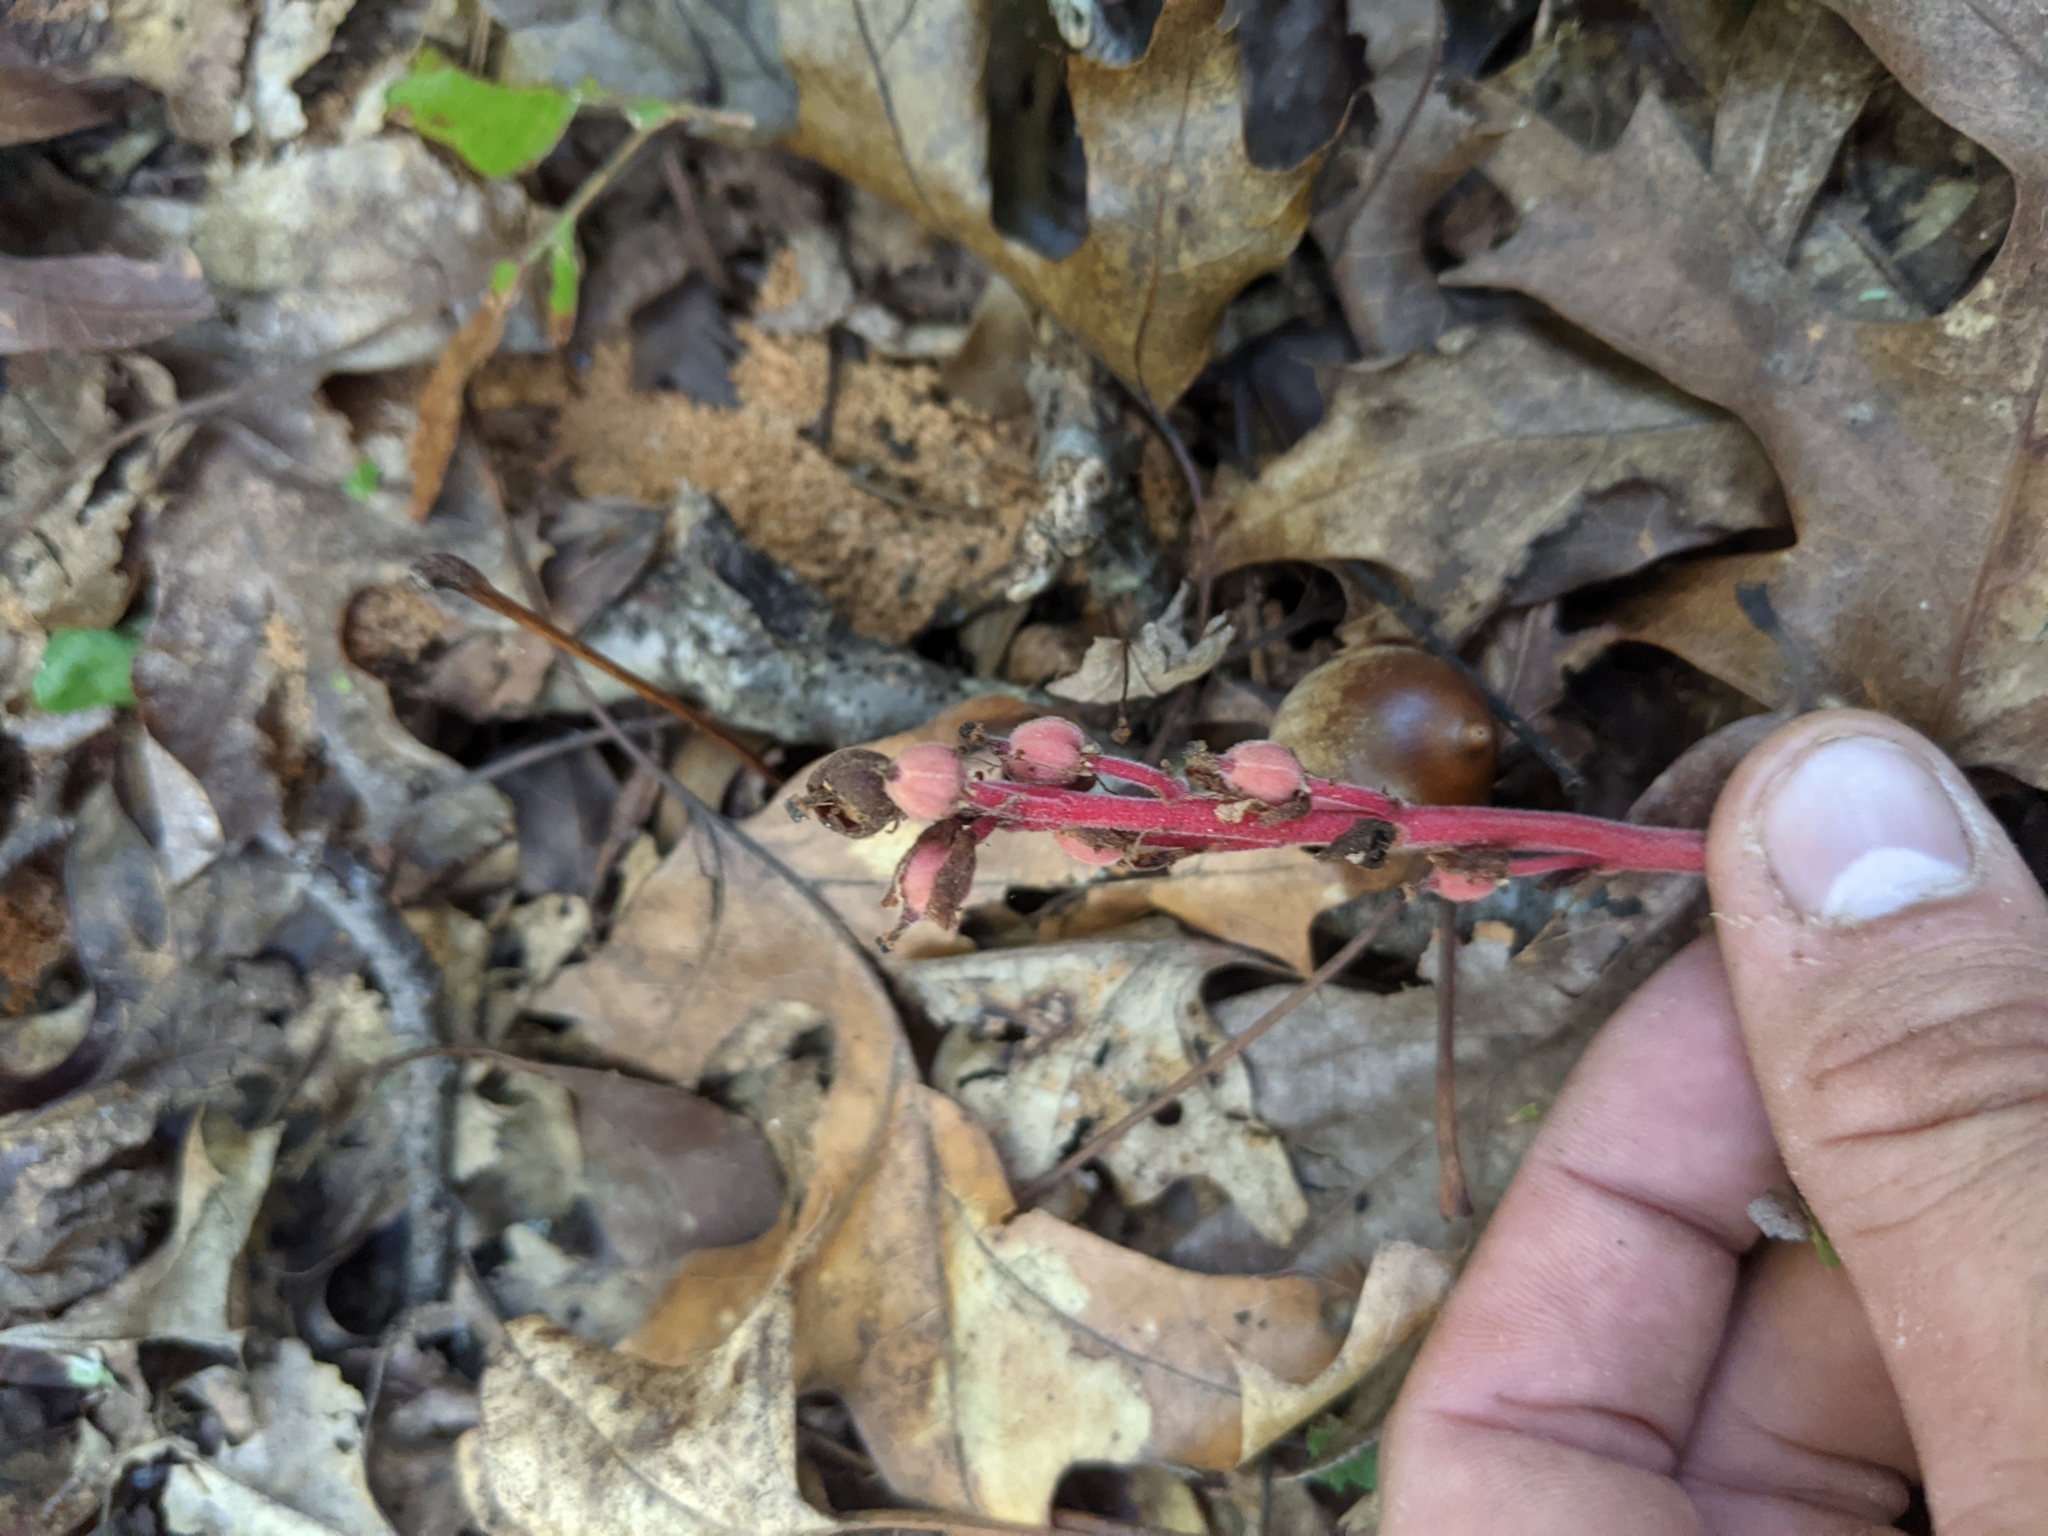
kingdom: Plantae
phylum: Tracheophyta
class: Magnoliopsida
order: Ericales
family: Ericaceae
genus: Hypopitys
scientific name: Hypopitys monotropa
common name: Yellow bird's-nest
